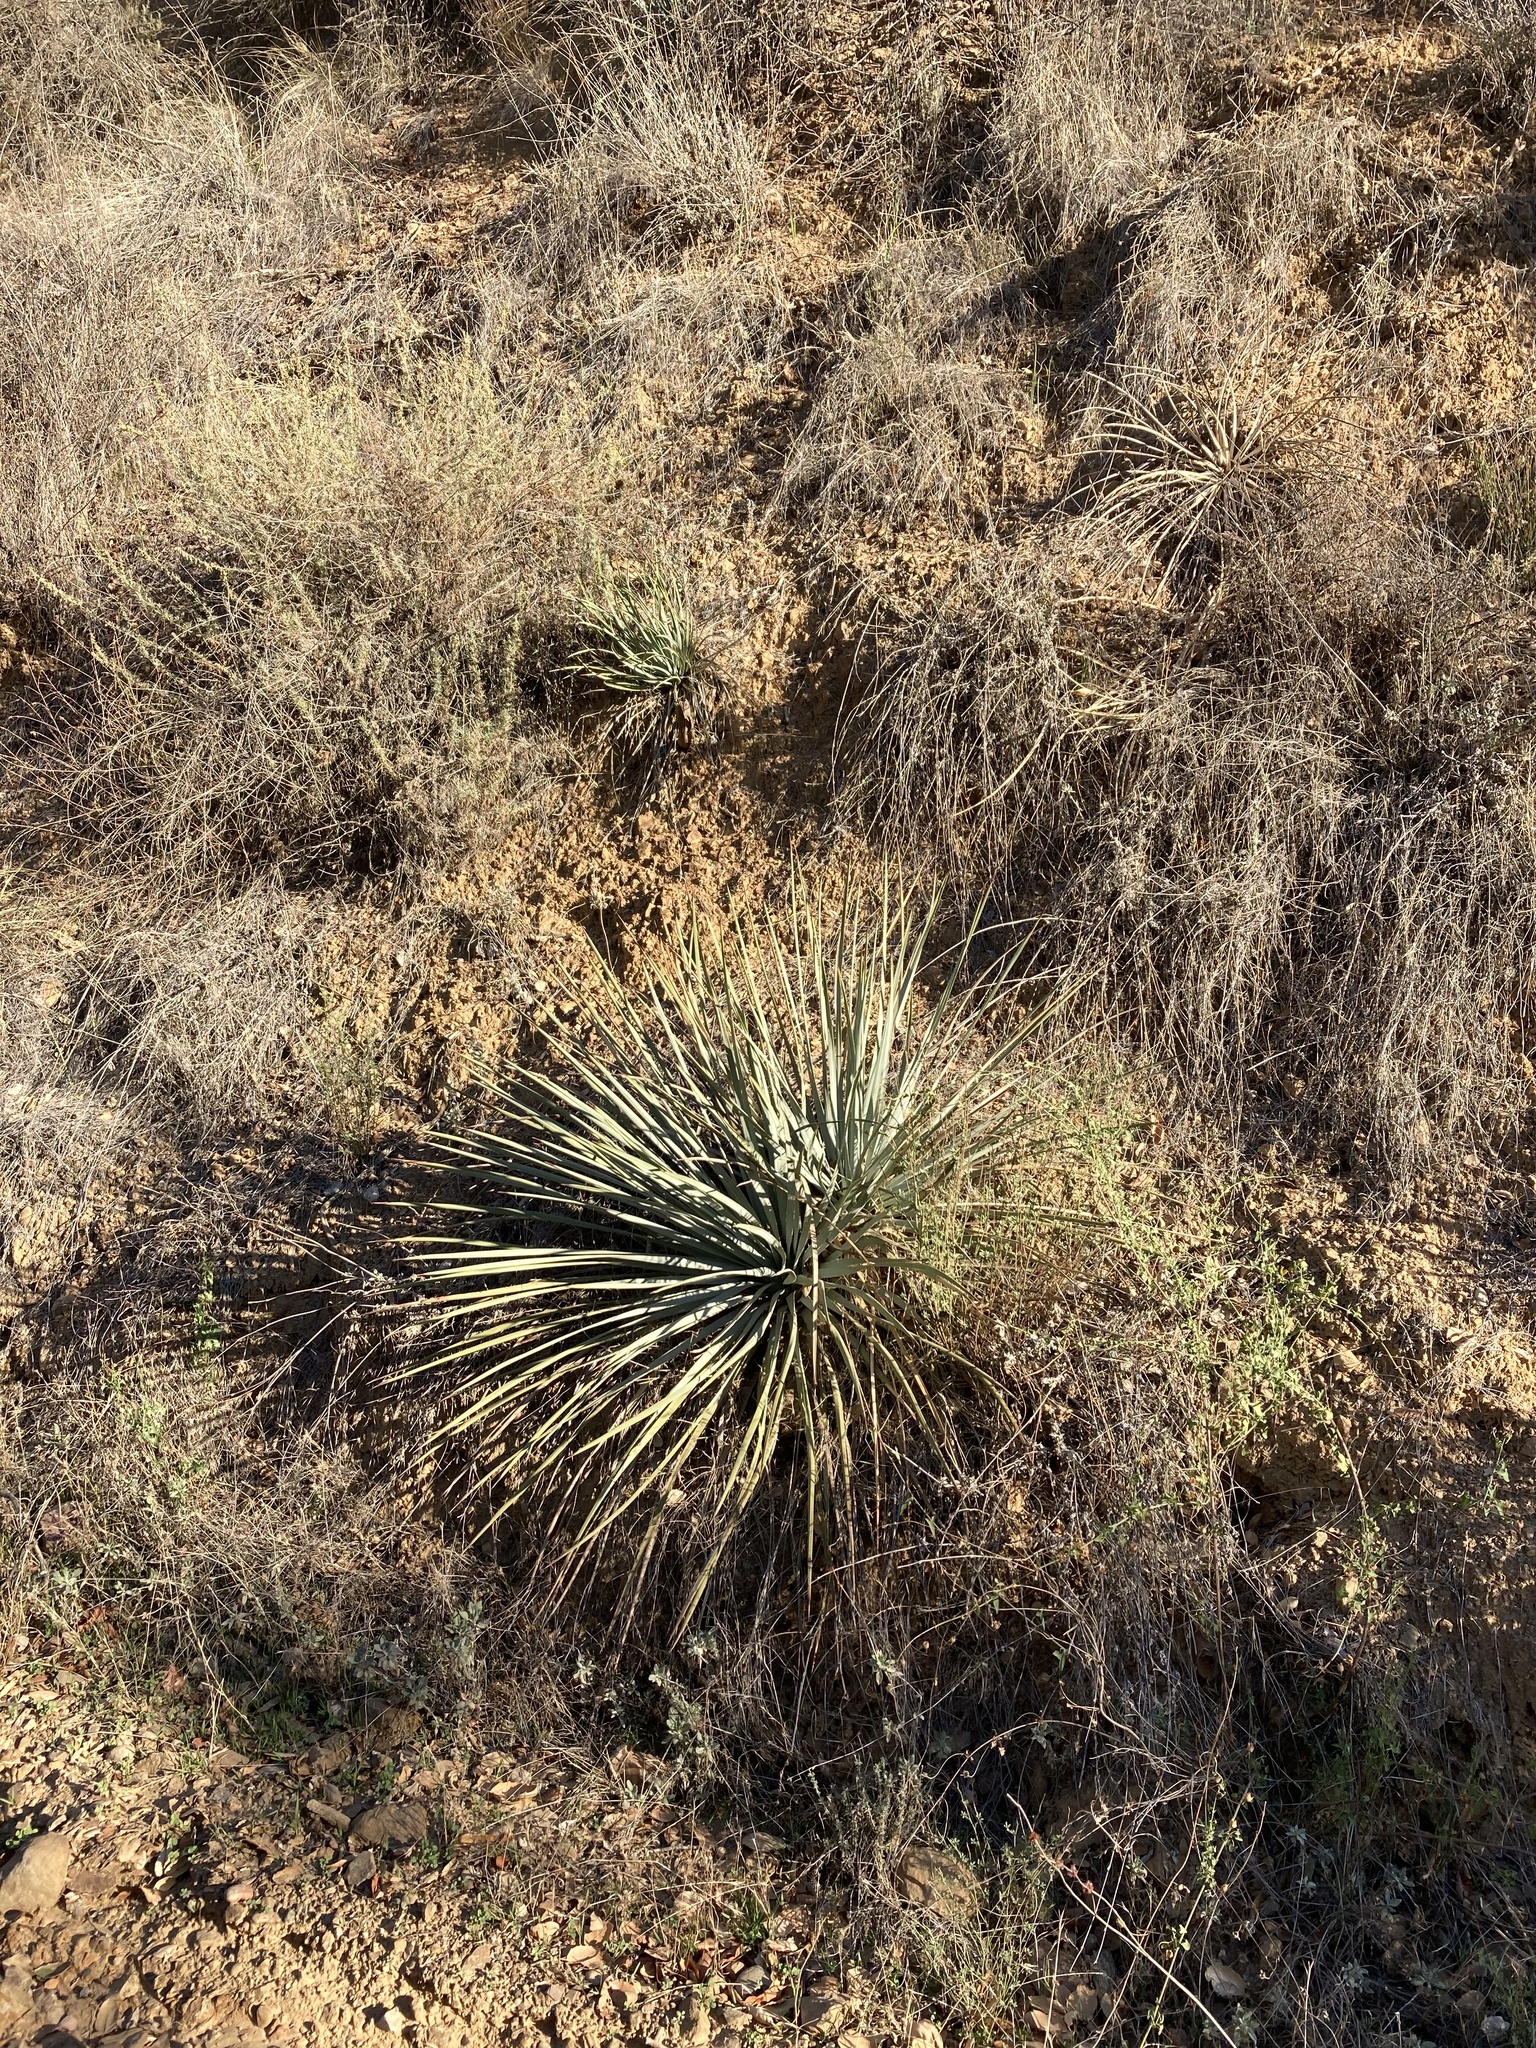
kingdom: Plantae
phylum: Tracheophyta
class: Liliopsida
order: Asparagales
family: Asparagaceae
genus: Hesperoyucca
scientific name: Hesperoyucca whipplei
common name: Our lord's-candle
